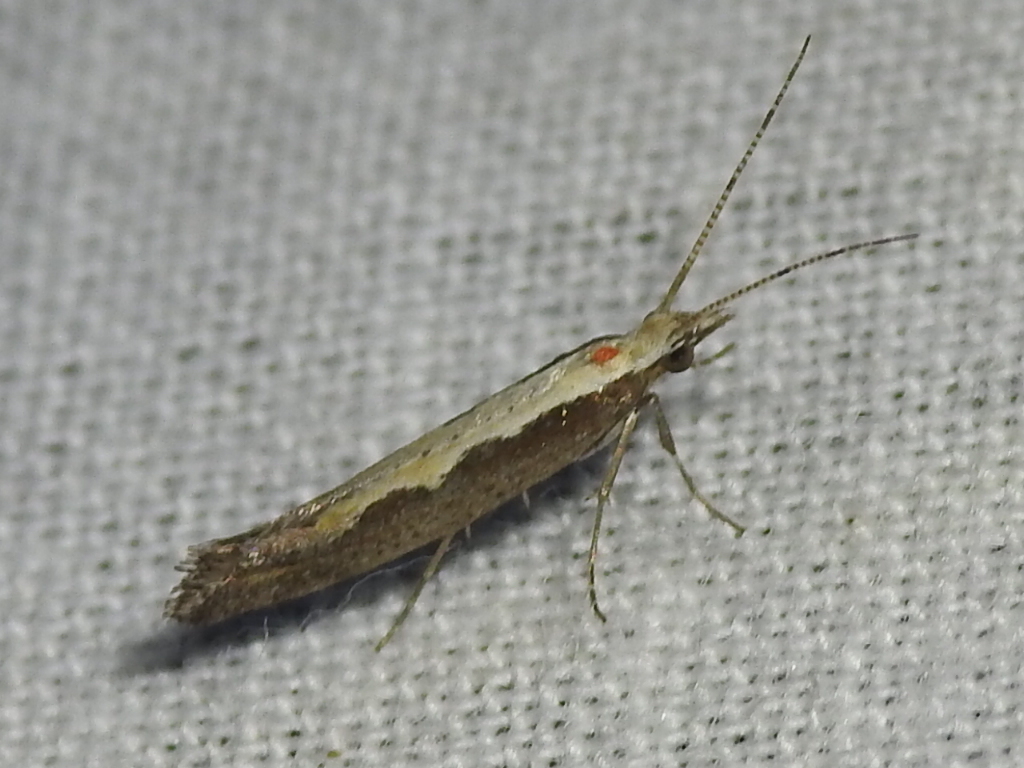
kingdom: Animalia
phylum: Arthropoda
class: Insecta
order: Lepidoptera
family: Plutellidae
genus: Plutella
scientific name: Plutella xylostella
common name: Diamond-back moth
